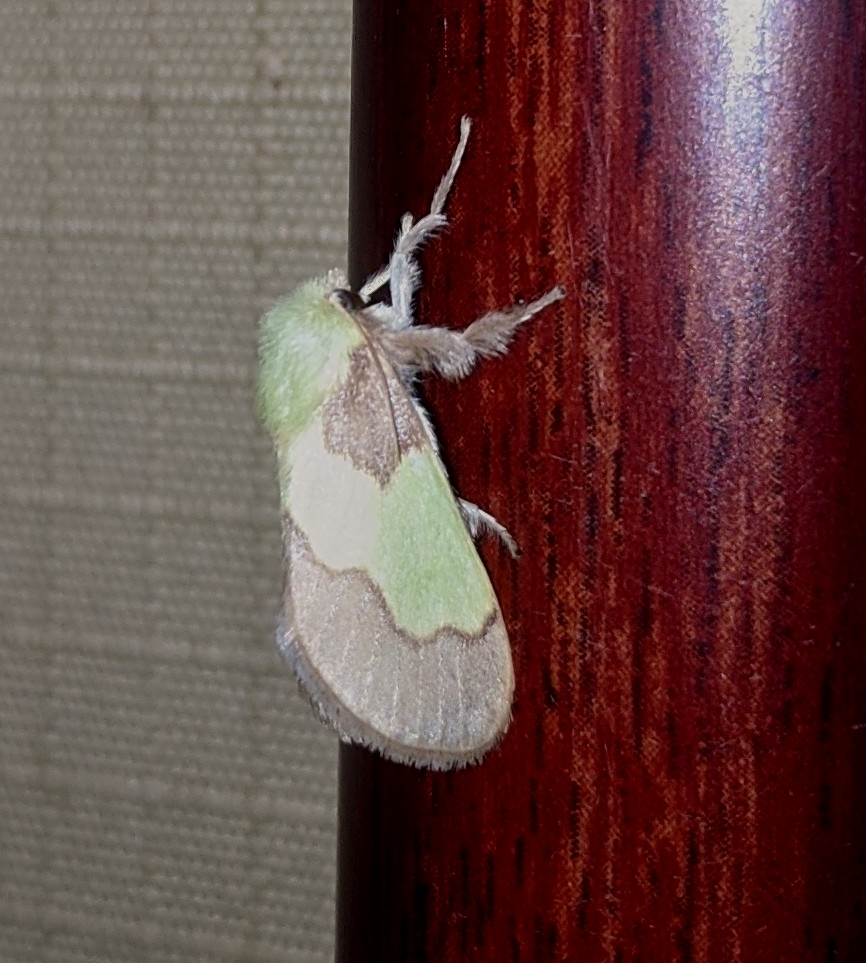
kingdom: Animalia
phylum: Arthropoda
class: Insecta
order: Lepidoptera
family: Limacodidae
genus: Aergina
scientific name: Aergina hilaris
